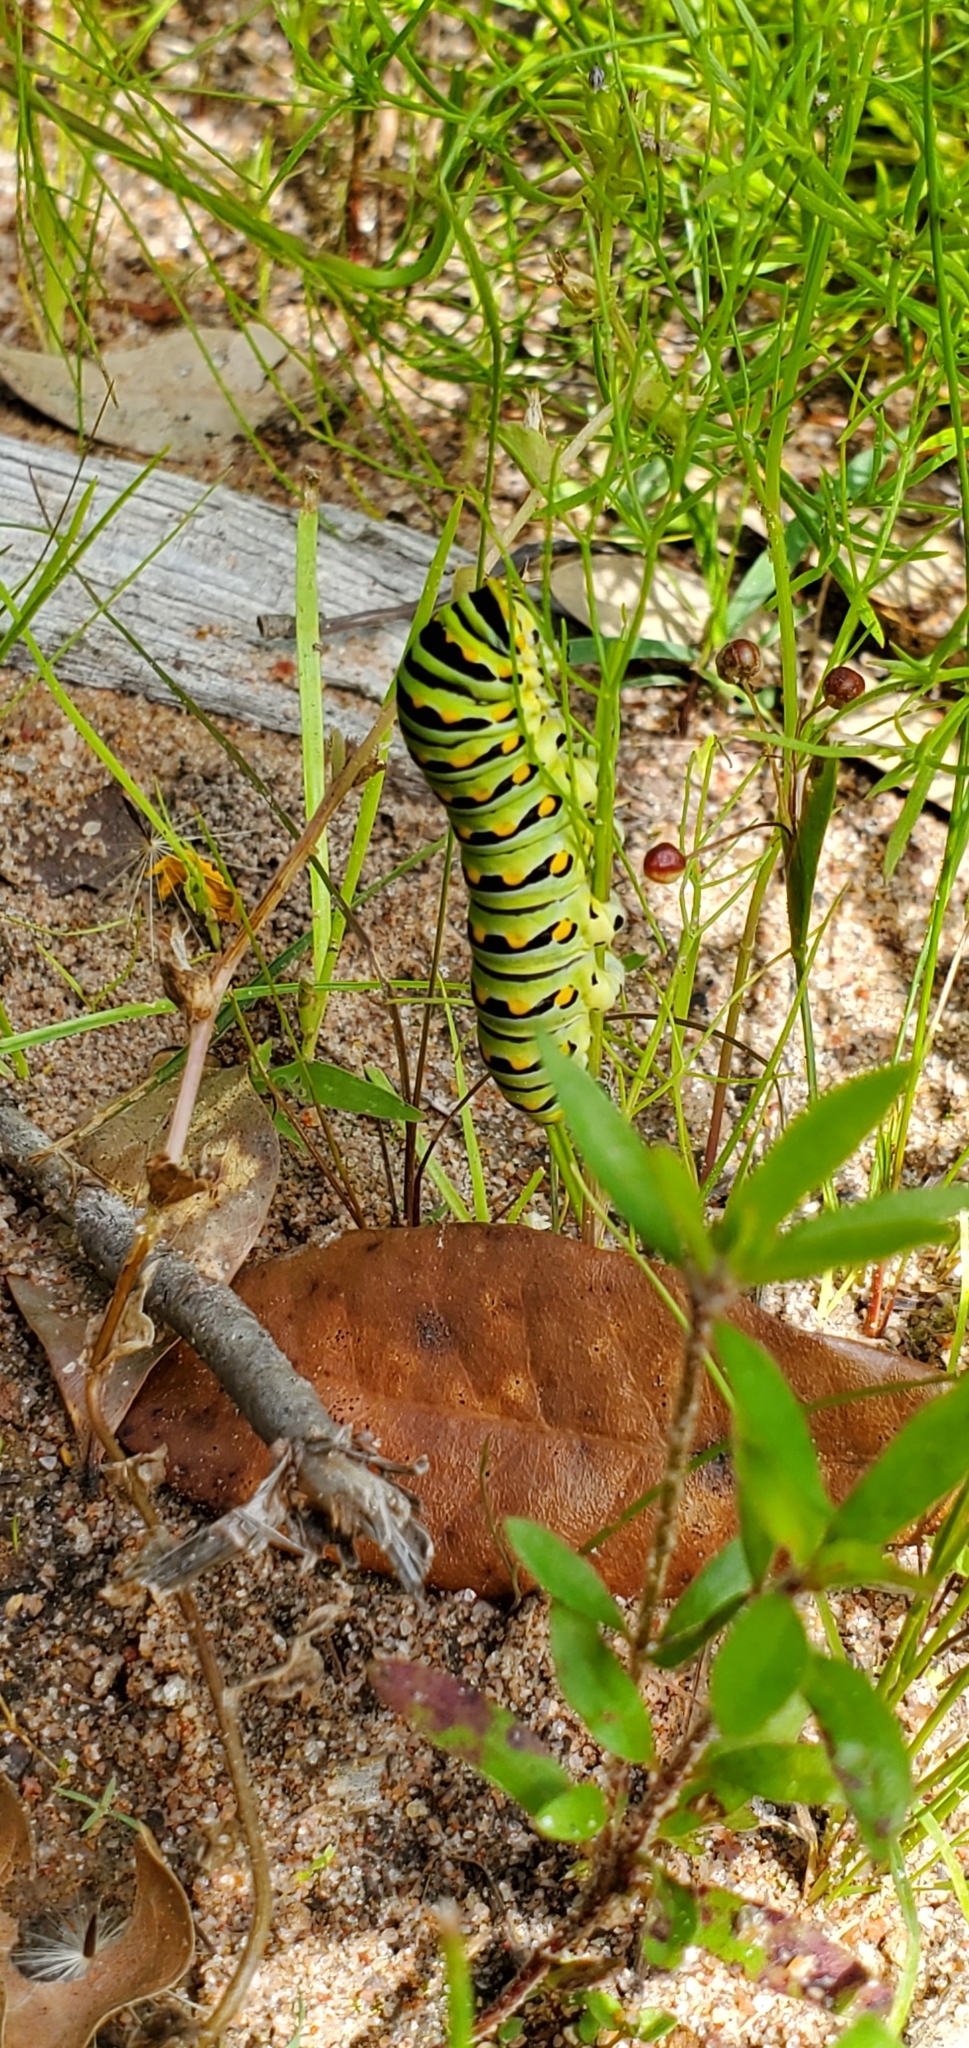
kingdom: Animalia
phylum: Arthropoda
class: Insecta
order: Lepidoptera
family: Papilionidae
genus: Papilio
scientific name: Papilio polyxenes
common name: Black swallowtail
